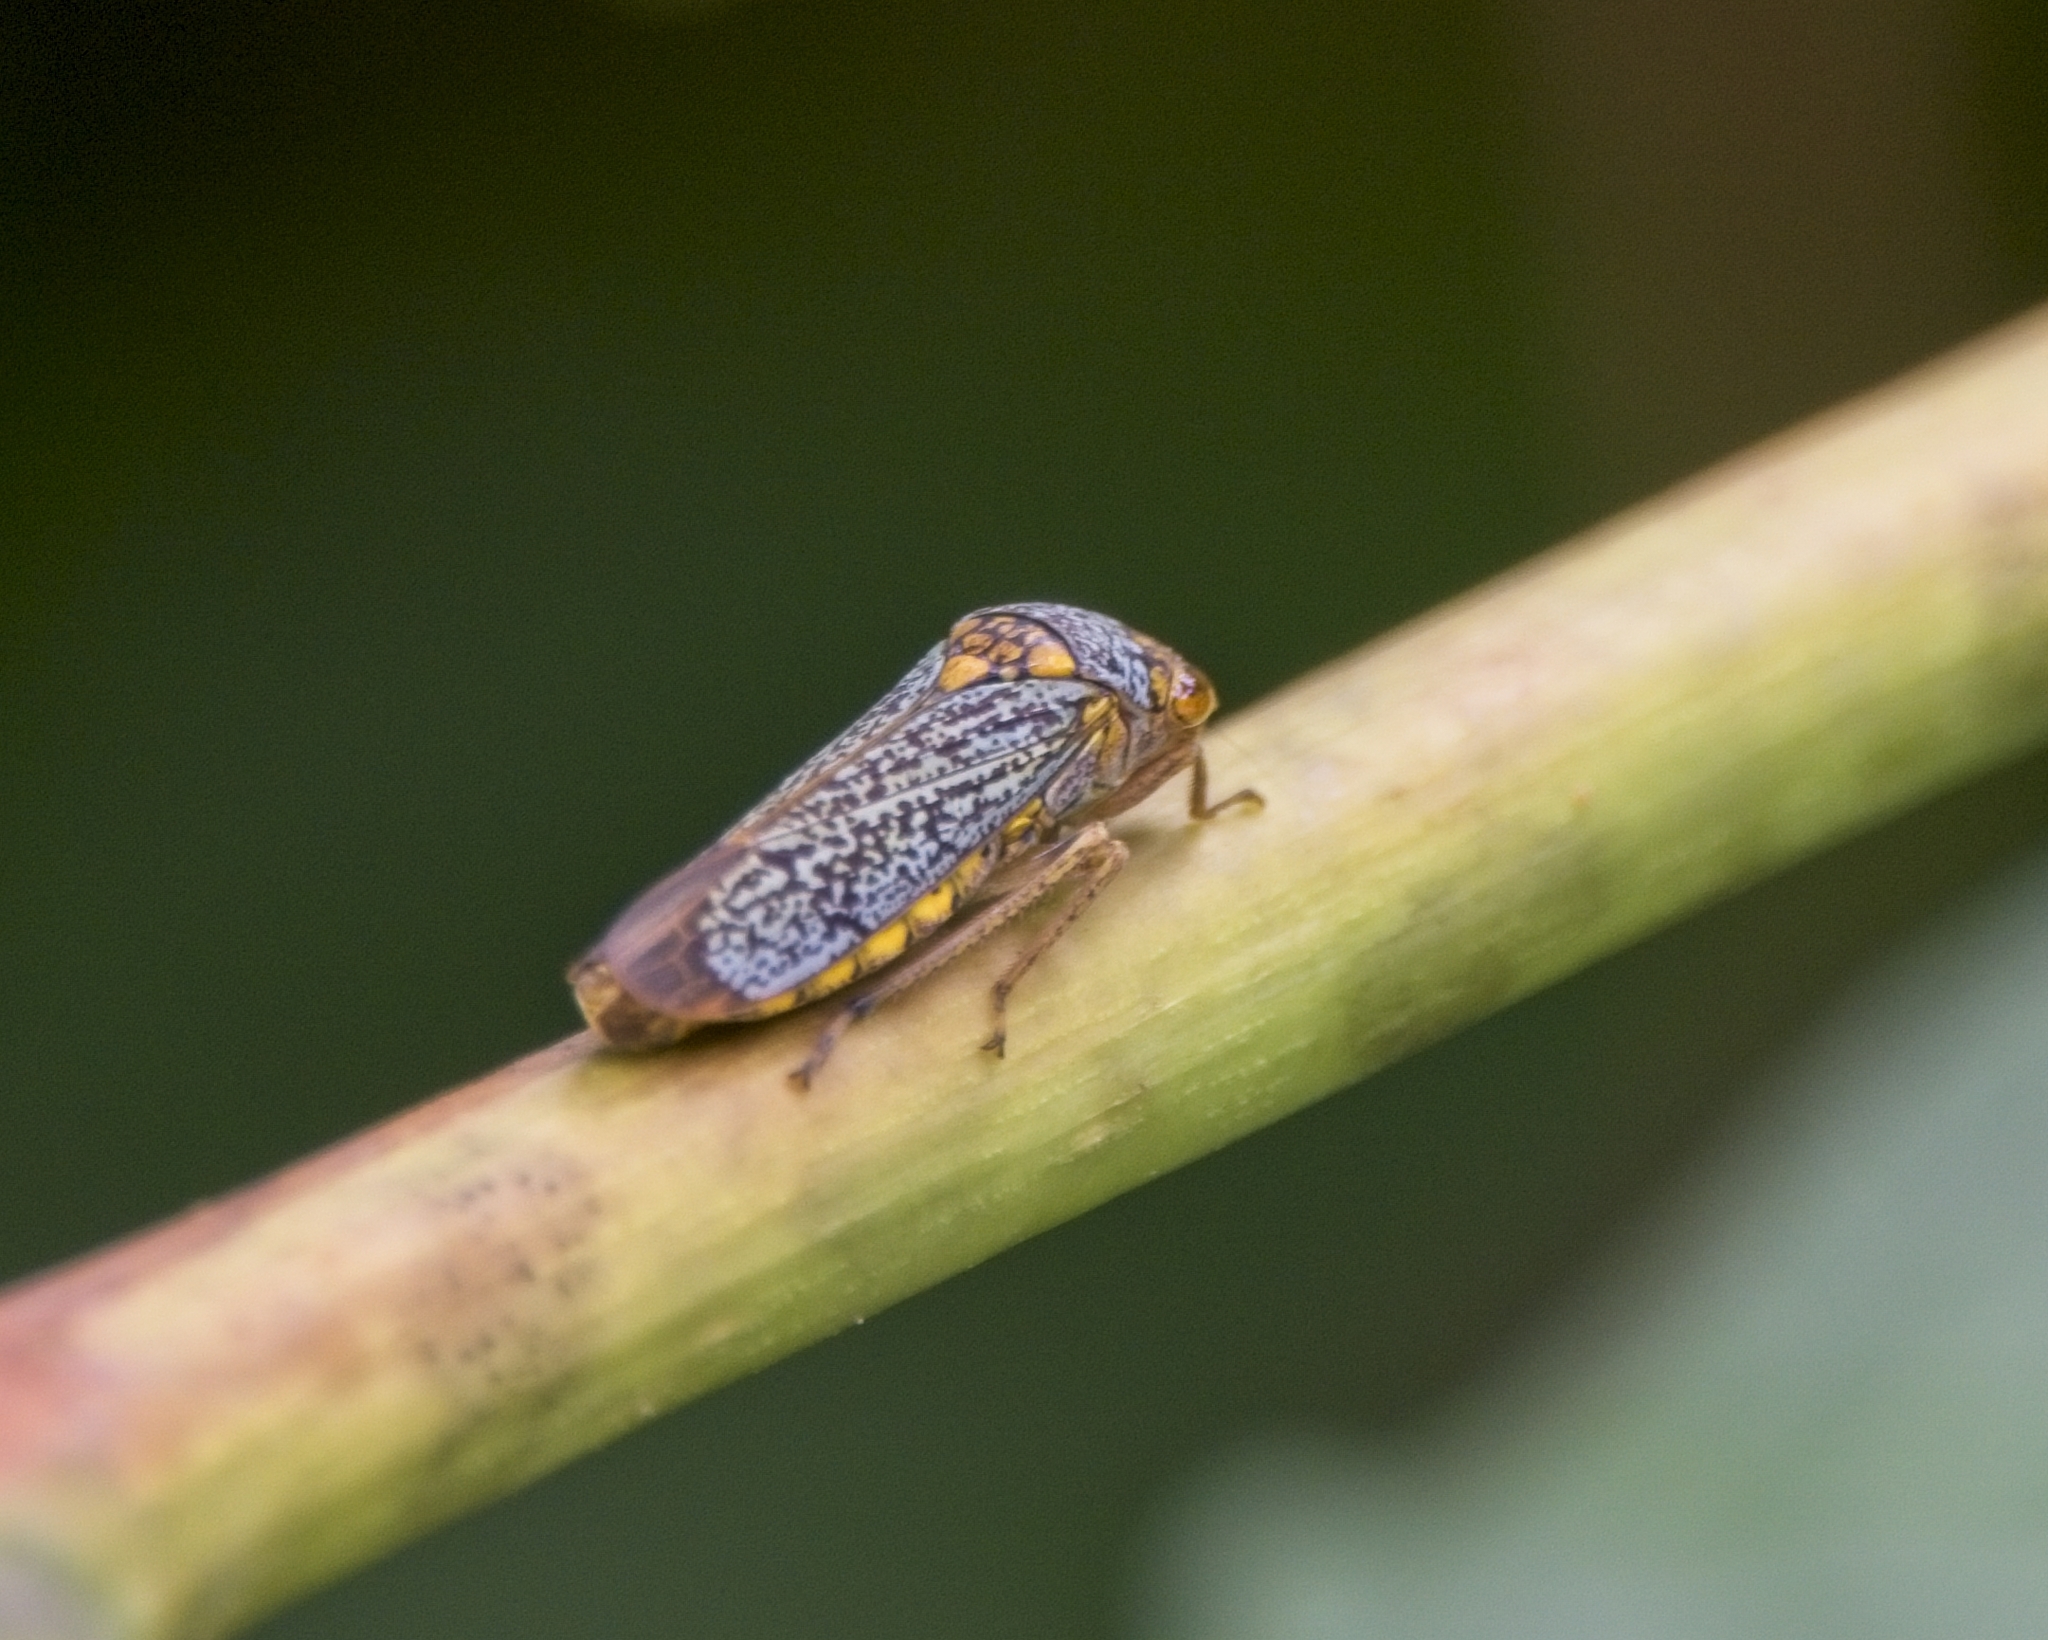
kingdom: Animalia
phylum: Arthropoda
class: Insecta
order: Hemiptera
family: Cicadellidae
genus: Oncometopia
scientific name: Oncometopia orbona
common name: Broad-headed sharpshooter
